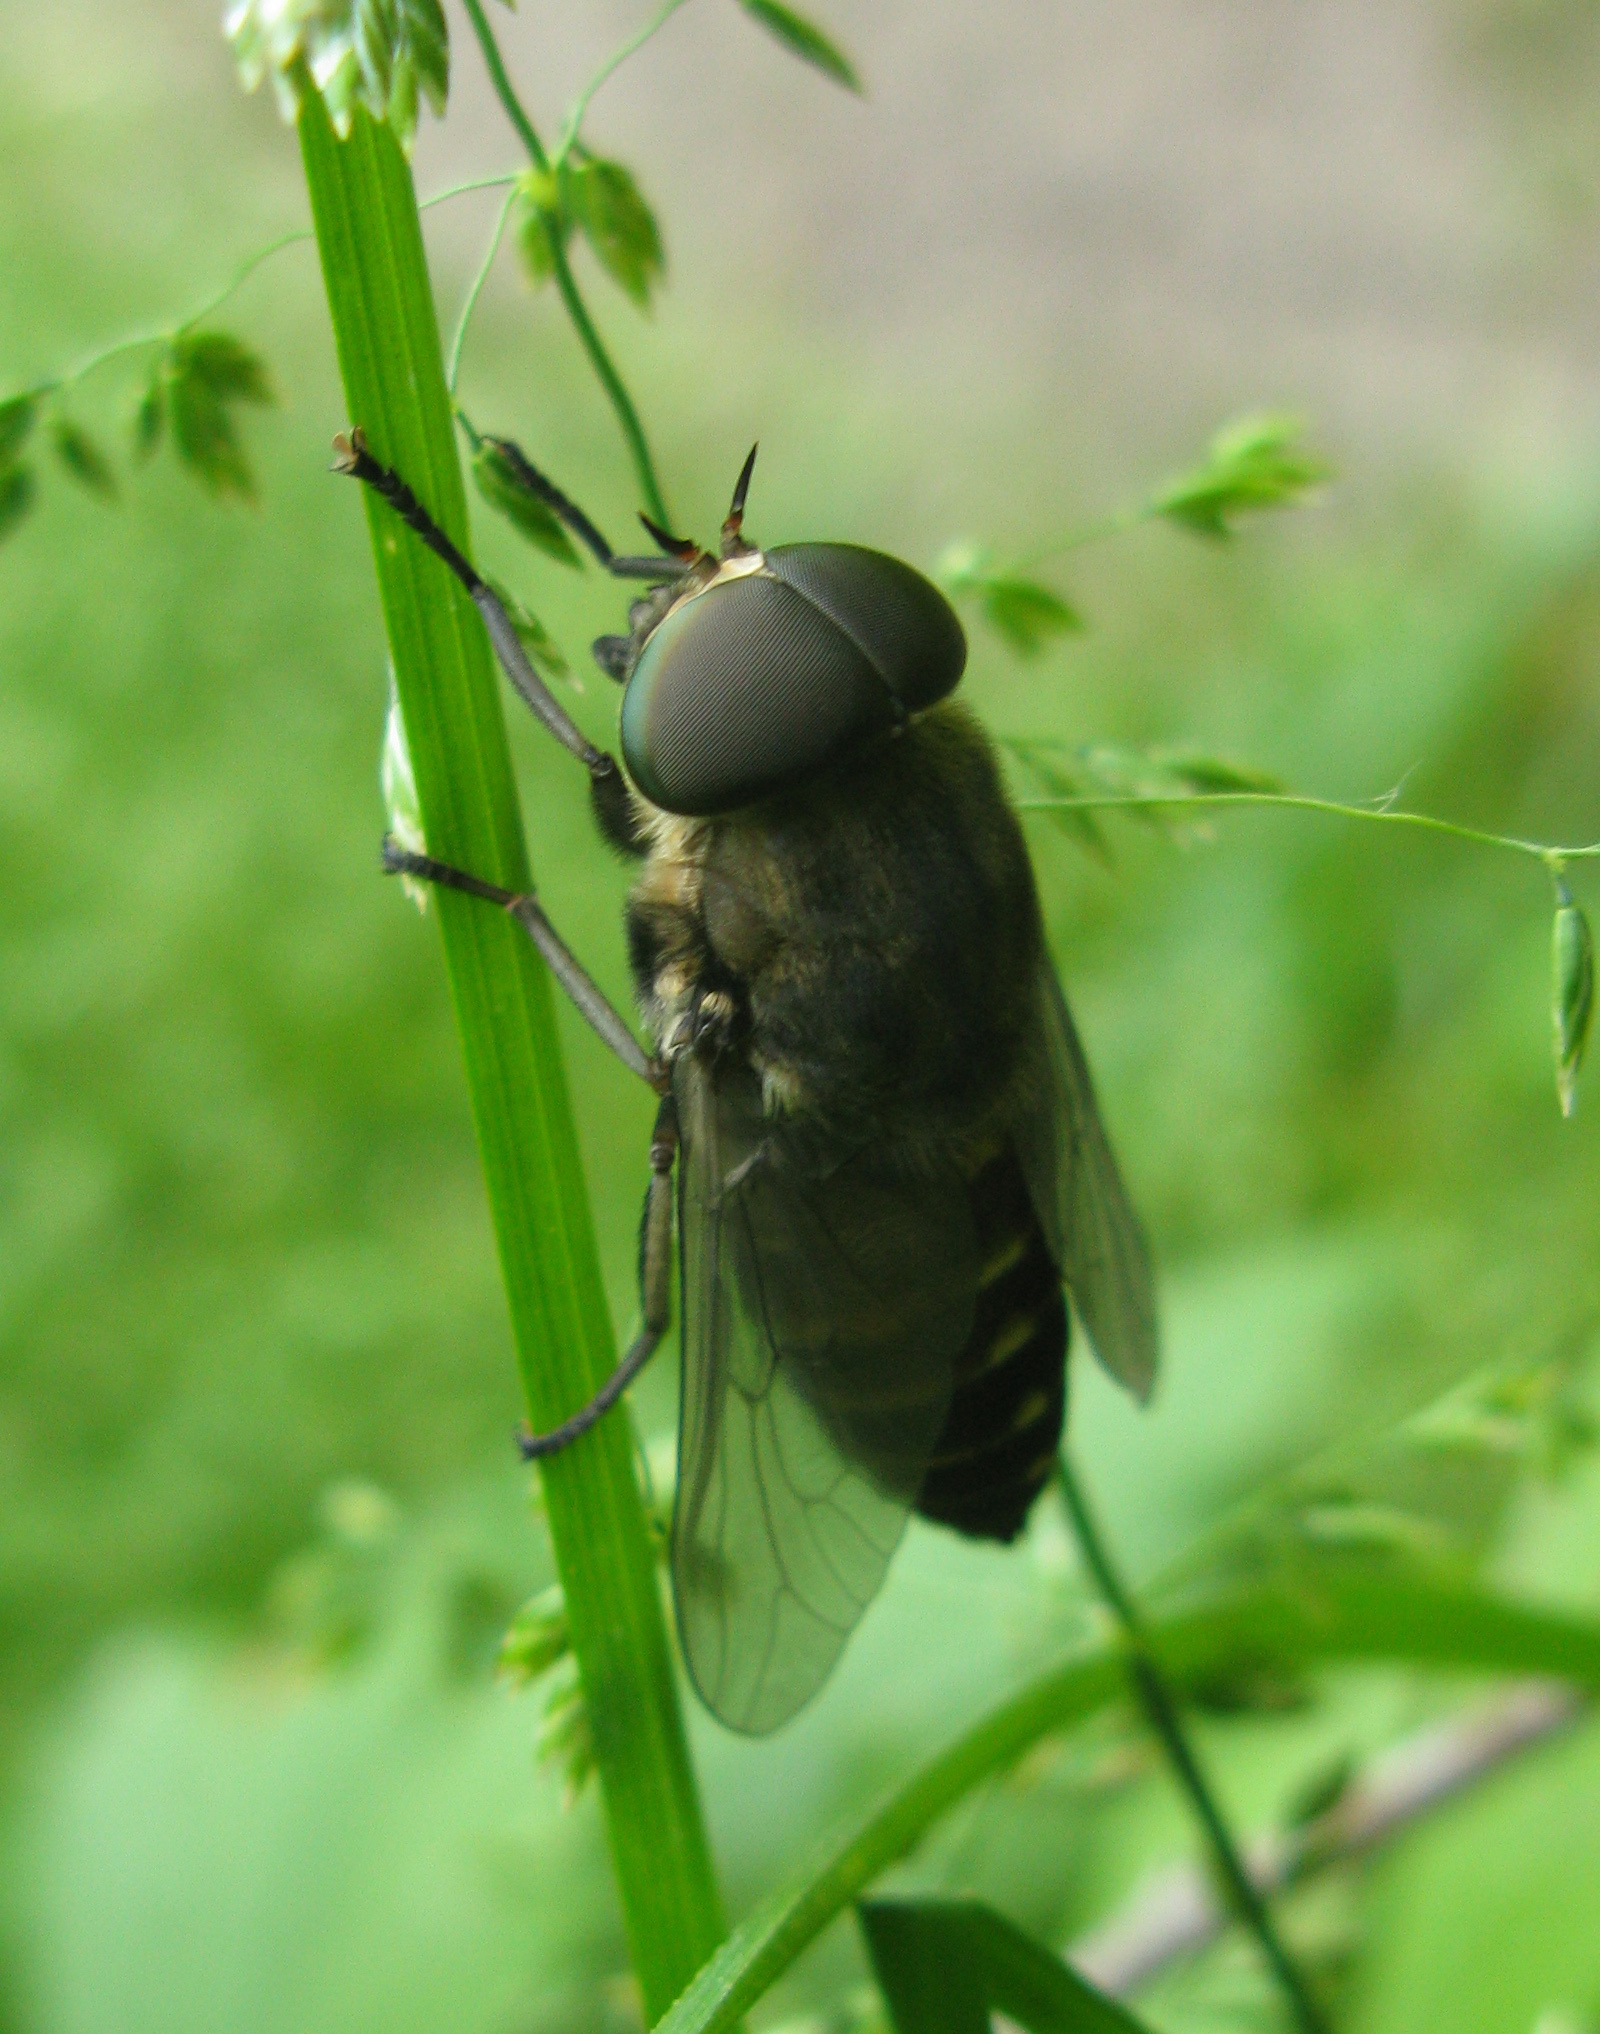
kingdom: Animalia
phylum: Arthropoda
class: Insecta
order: Diptera
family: Tabanidae
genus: Tabanus
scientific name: Tabanus sudeticus
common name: Dark giant horsefly
